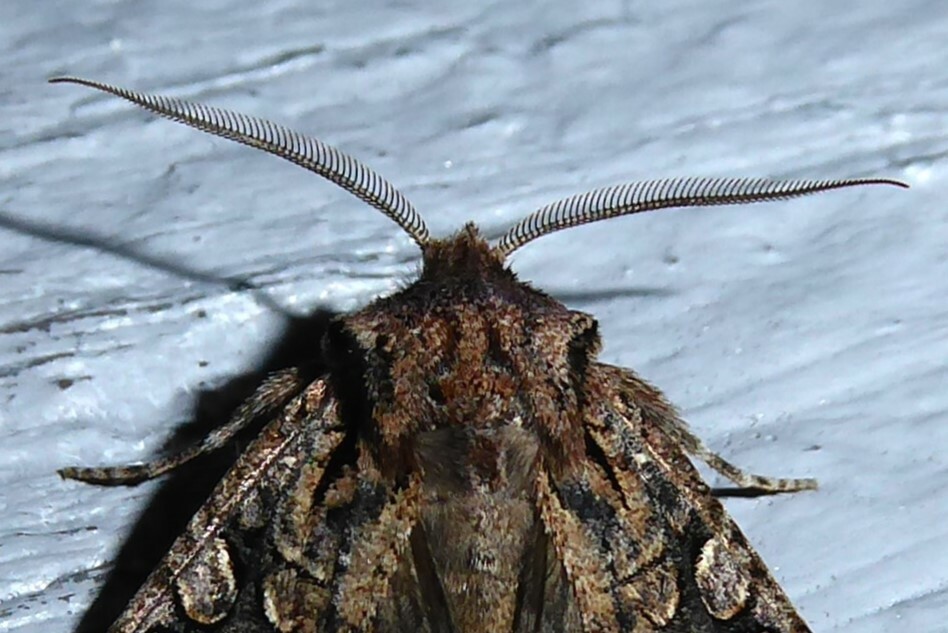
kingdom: Animalia
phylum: Arthropoda
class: Insecta
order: Lepidoptera
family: Noctuidae
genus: Ichneutica
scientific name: Ichneutica skelloni
